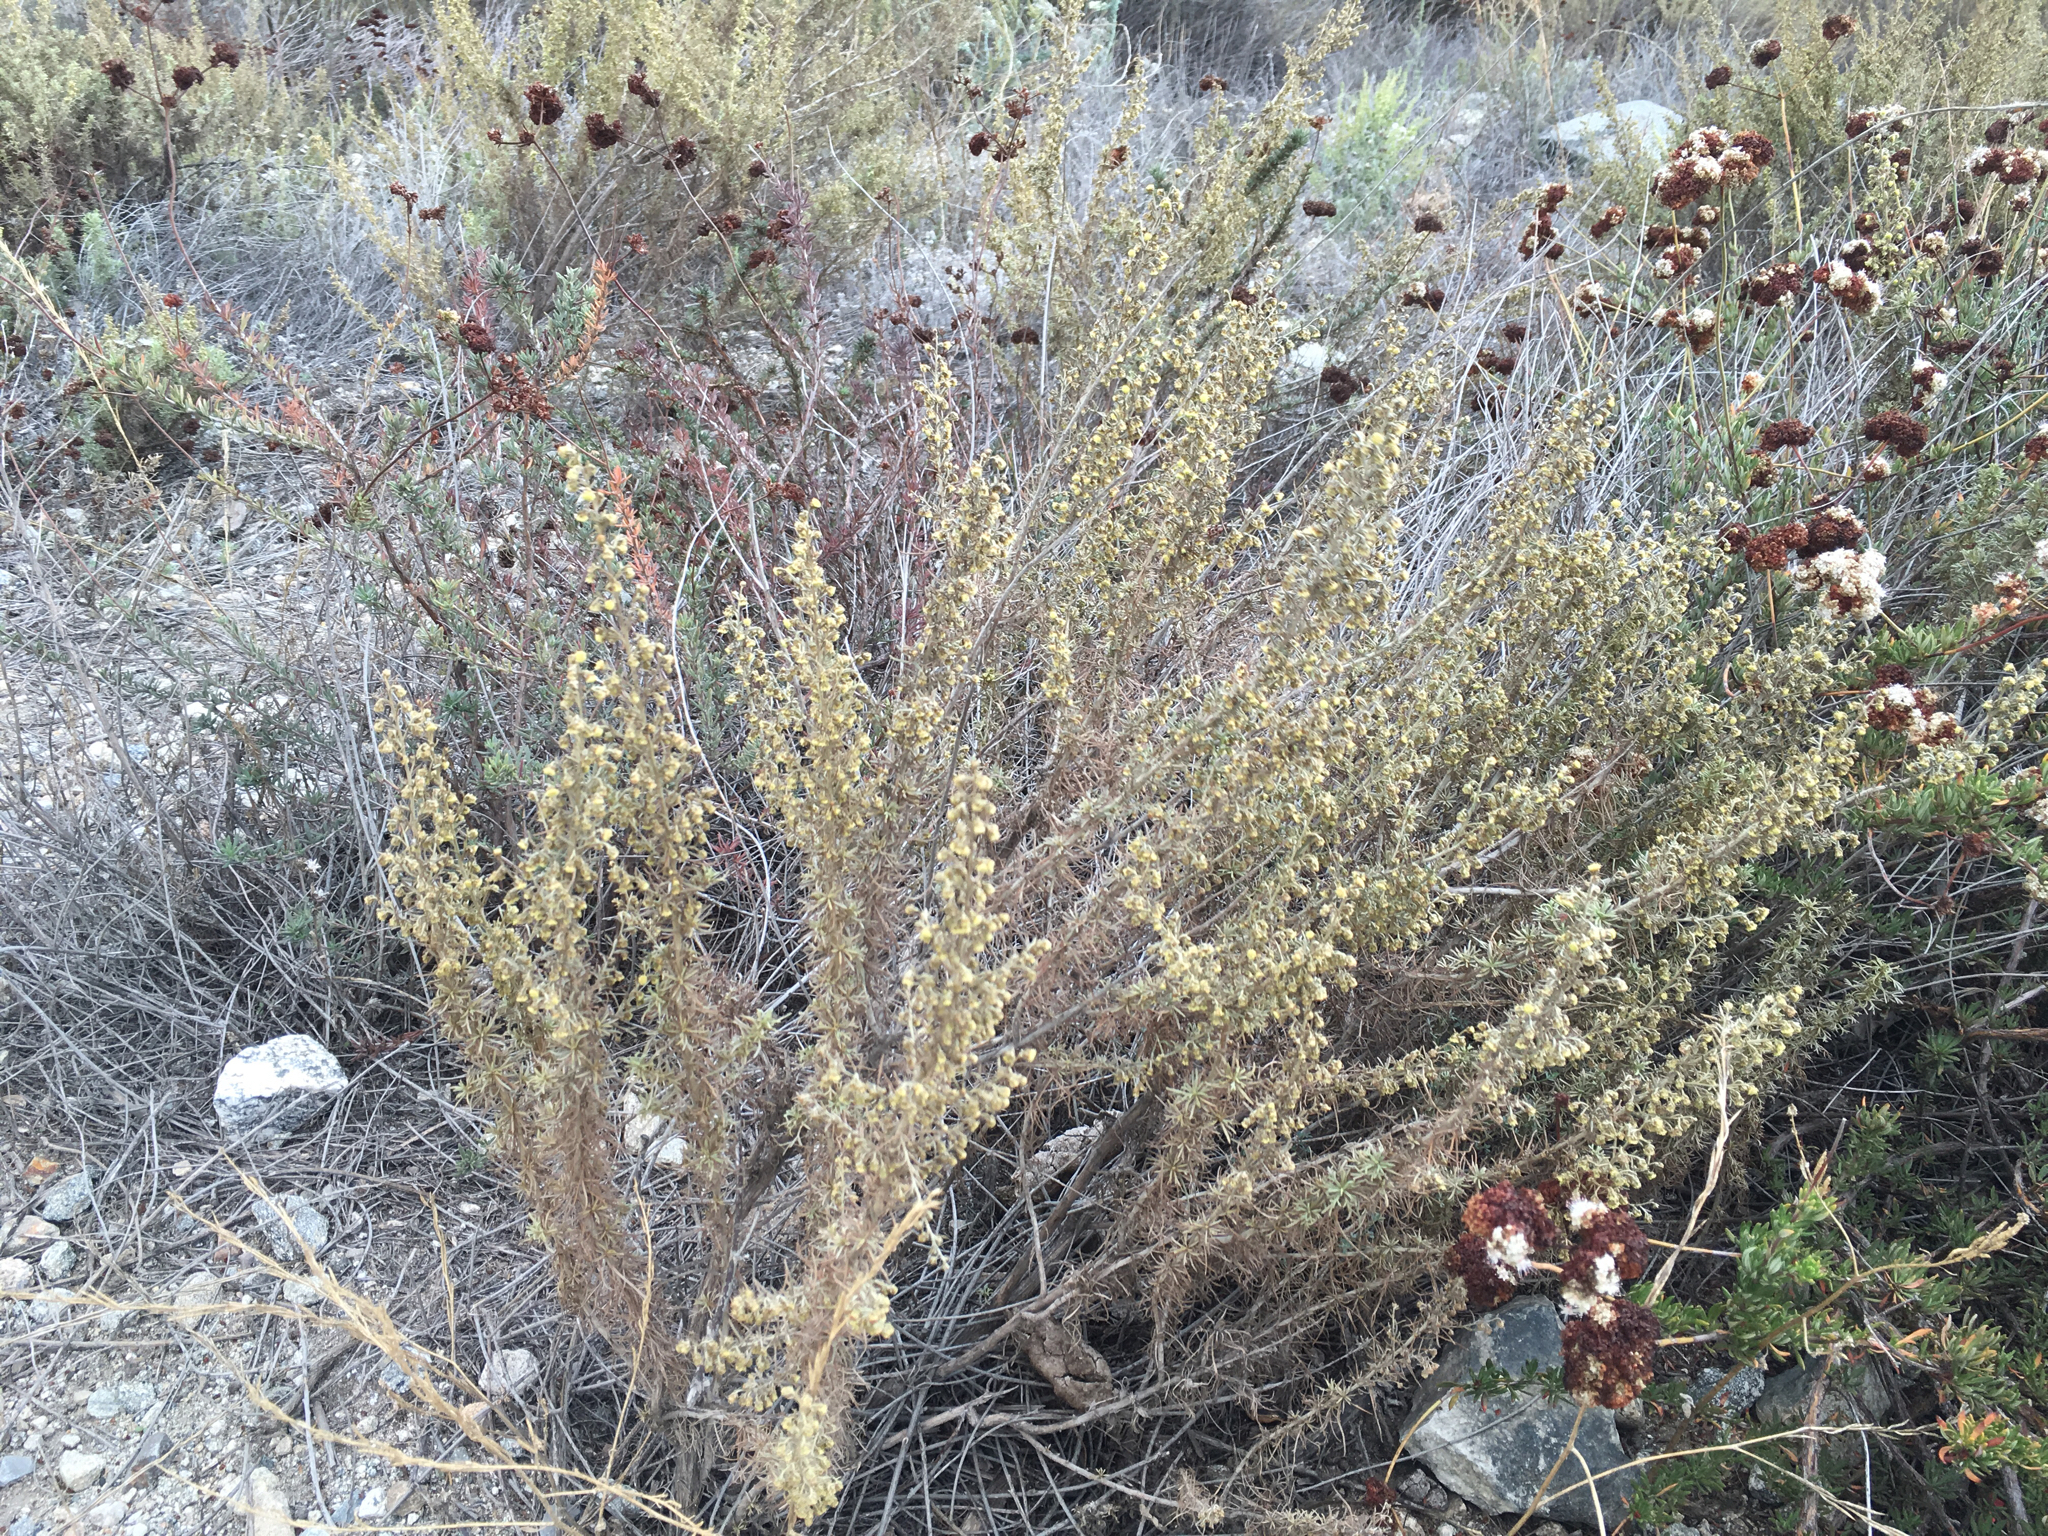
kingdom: Plantae
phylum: Tracheophyta
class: Magnoliopsida
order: Asterales
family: Asteraceae
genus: Artemisia
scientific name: Artemisia californica
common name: California sagebrush
